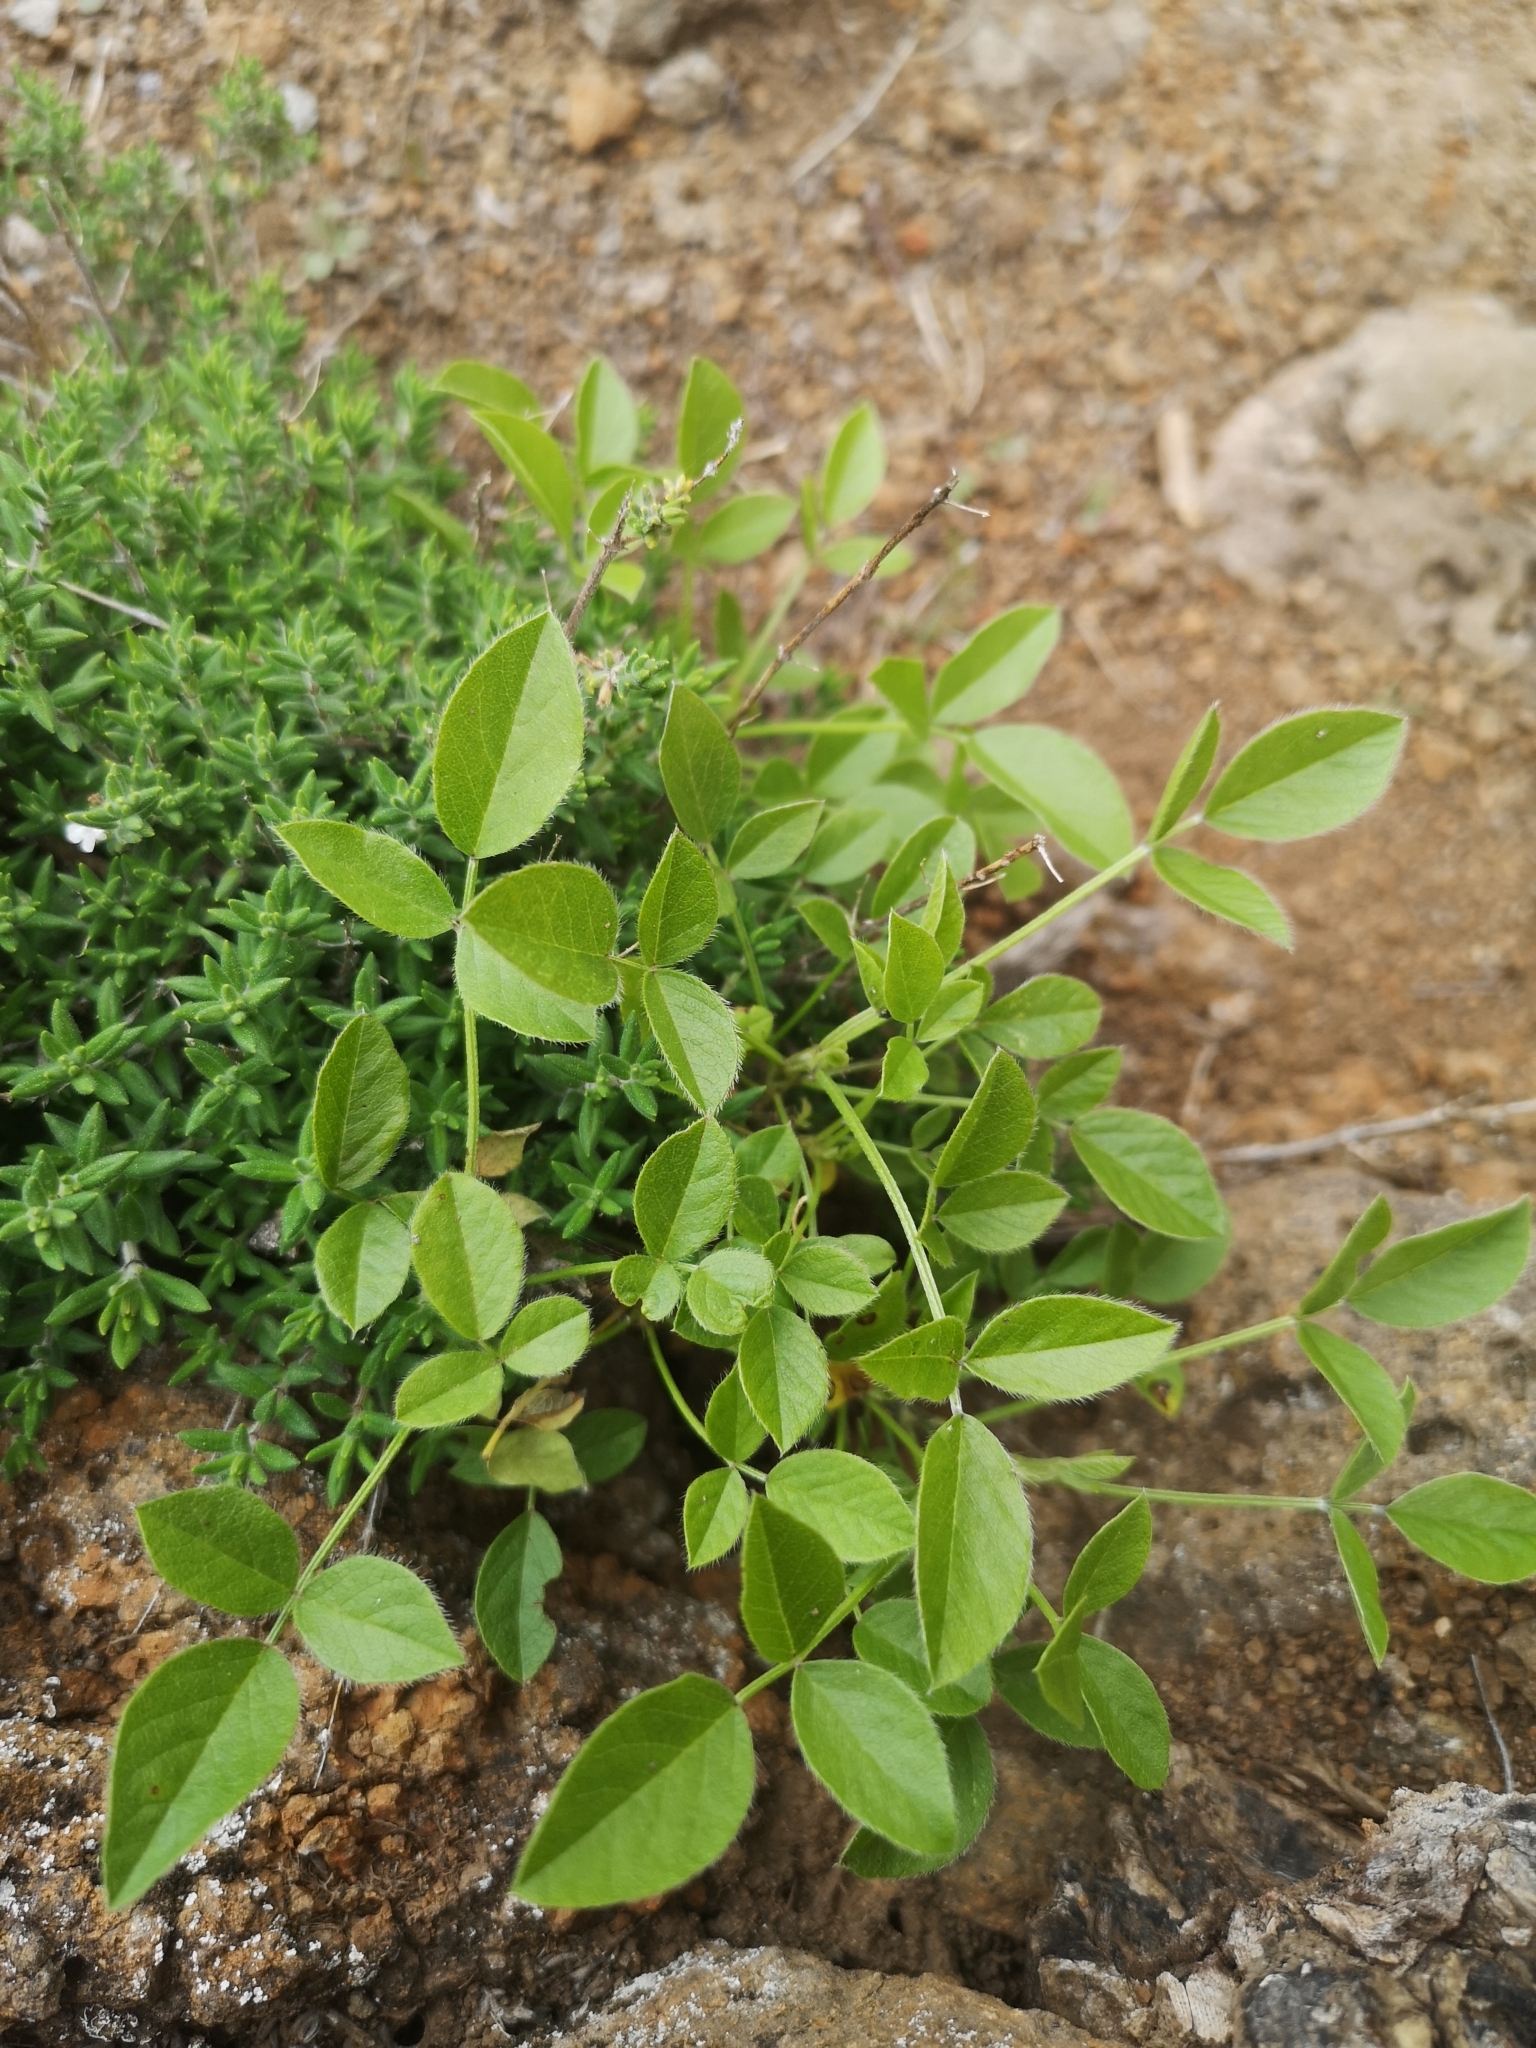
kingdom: Plantae
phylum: Tracheophyta
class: Magnoliopsida
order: Fabales
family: Fabaceae
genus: Bituminaria
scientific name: Bituminaria bituminosa
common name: Arabian pea
